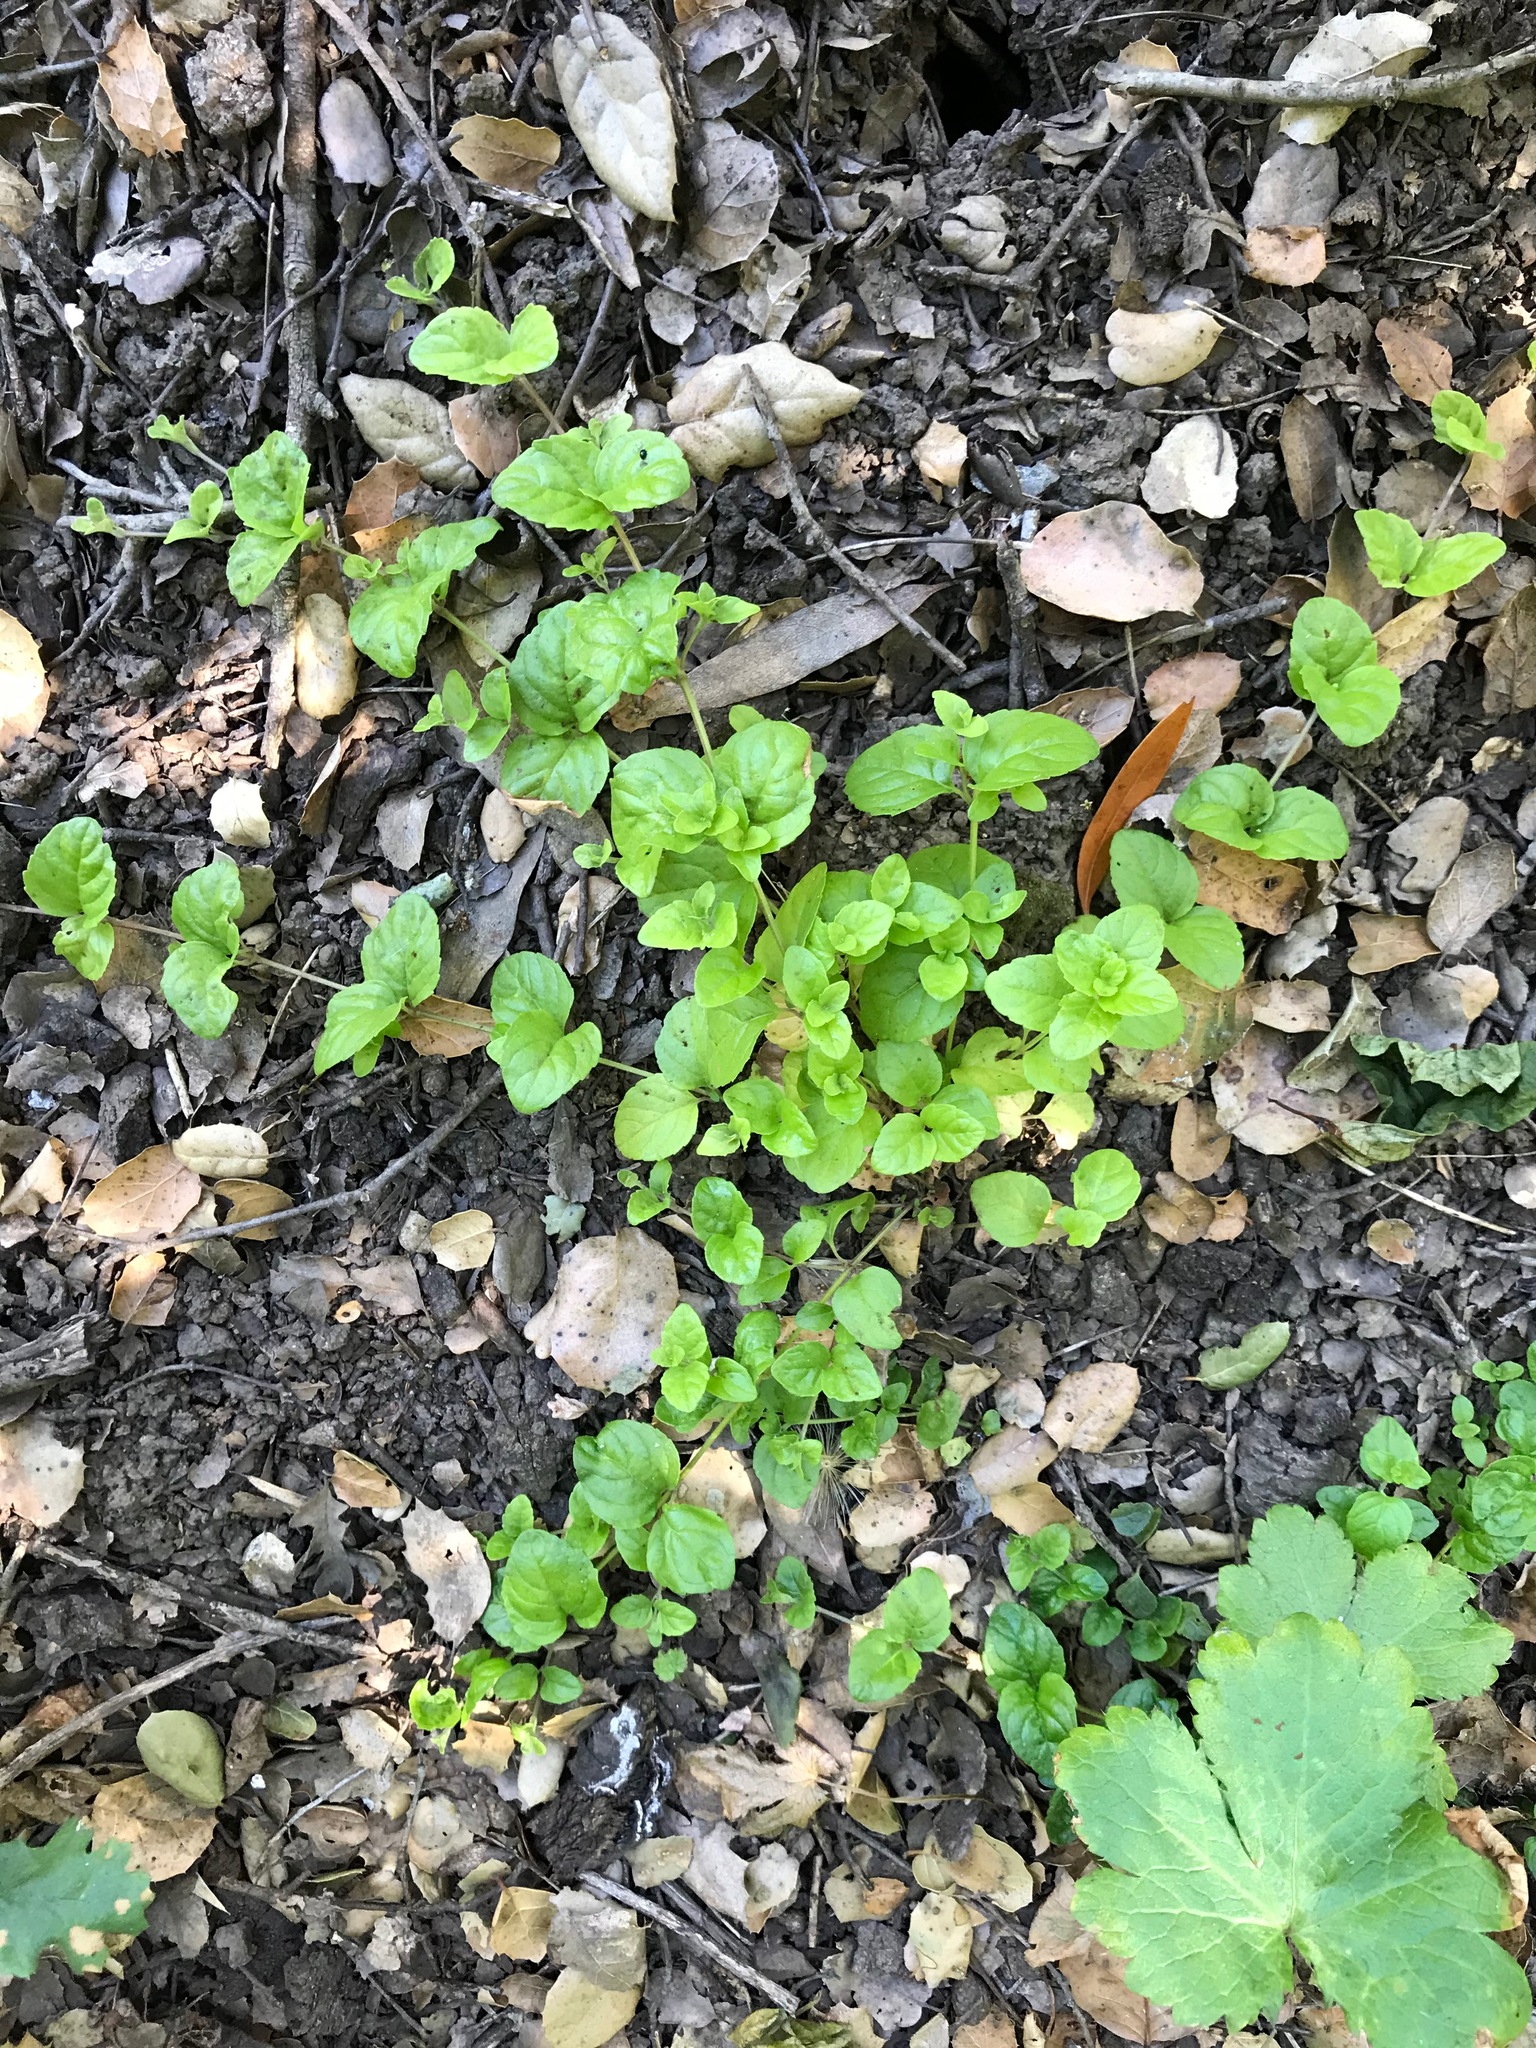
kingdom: Plantae
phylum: Tracheophyta
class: Magnoliopsida
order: Lamiales
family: Lamiaceae
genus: Micromeria
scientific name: Micromeria douglasii
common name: Yerba buena
